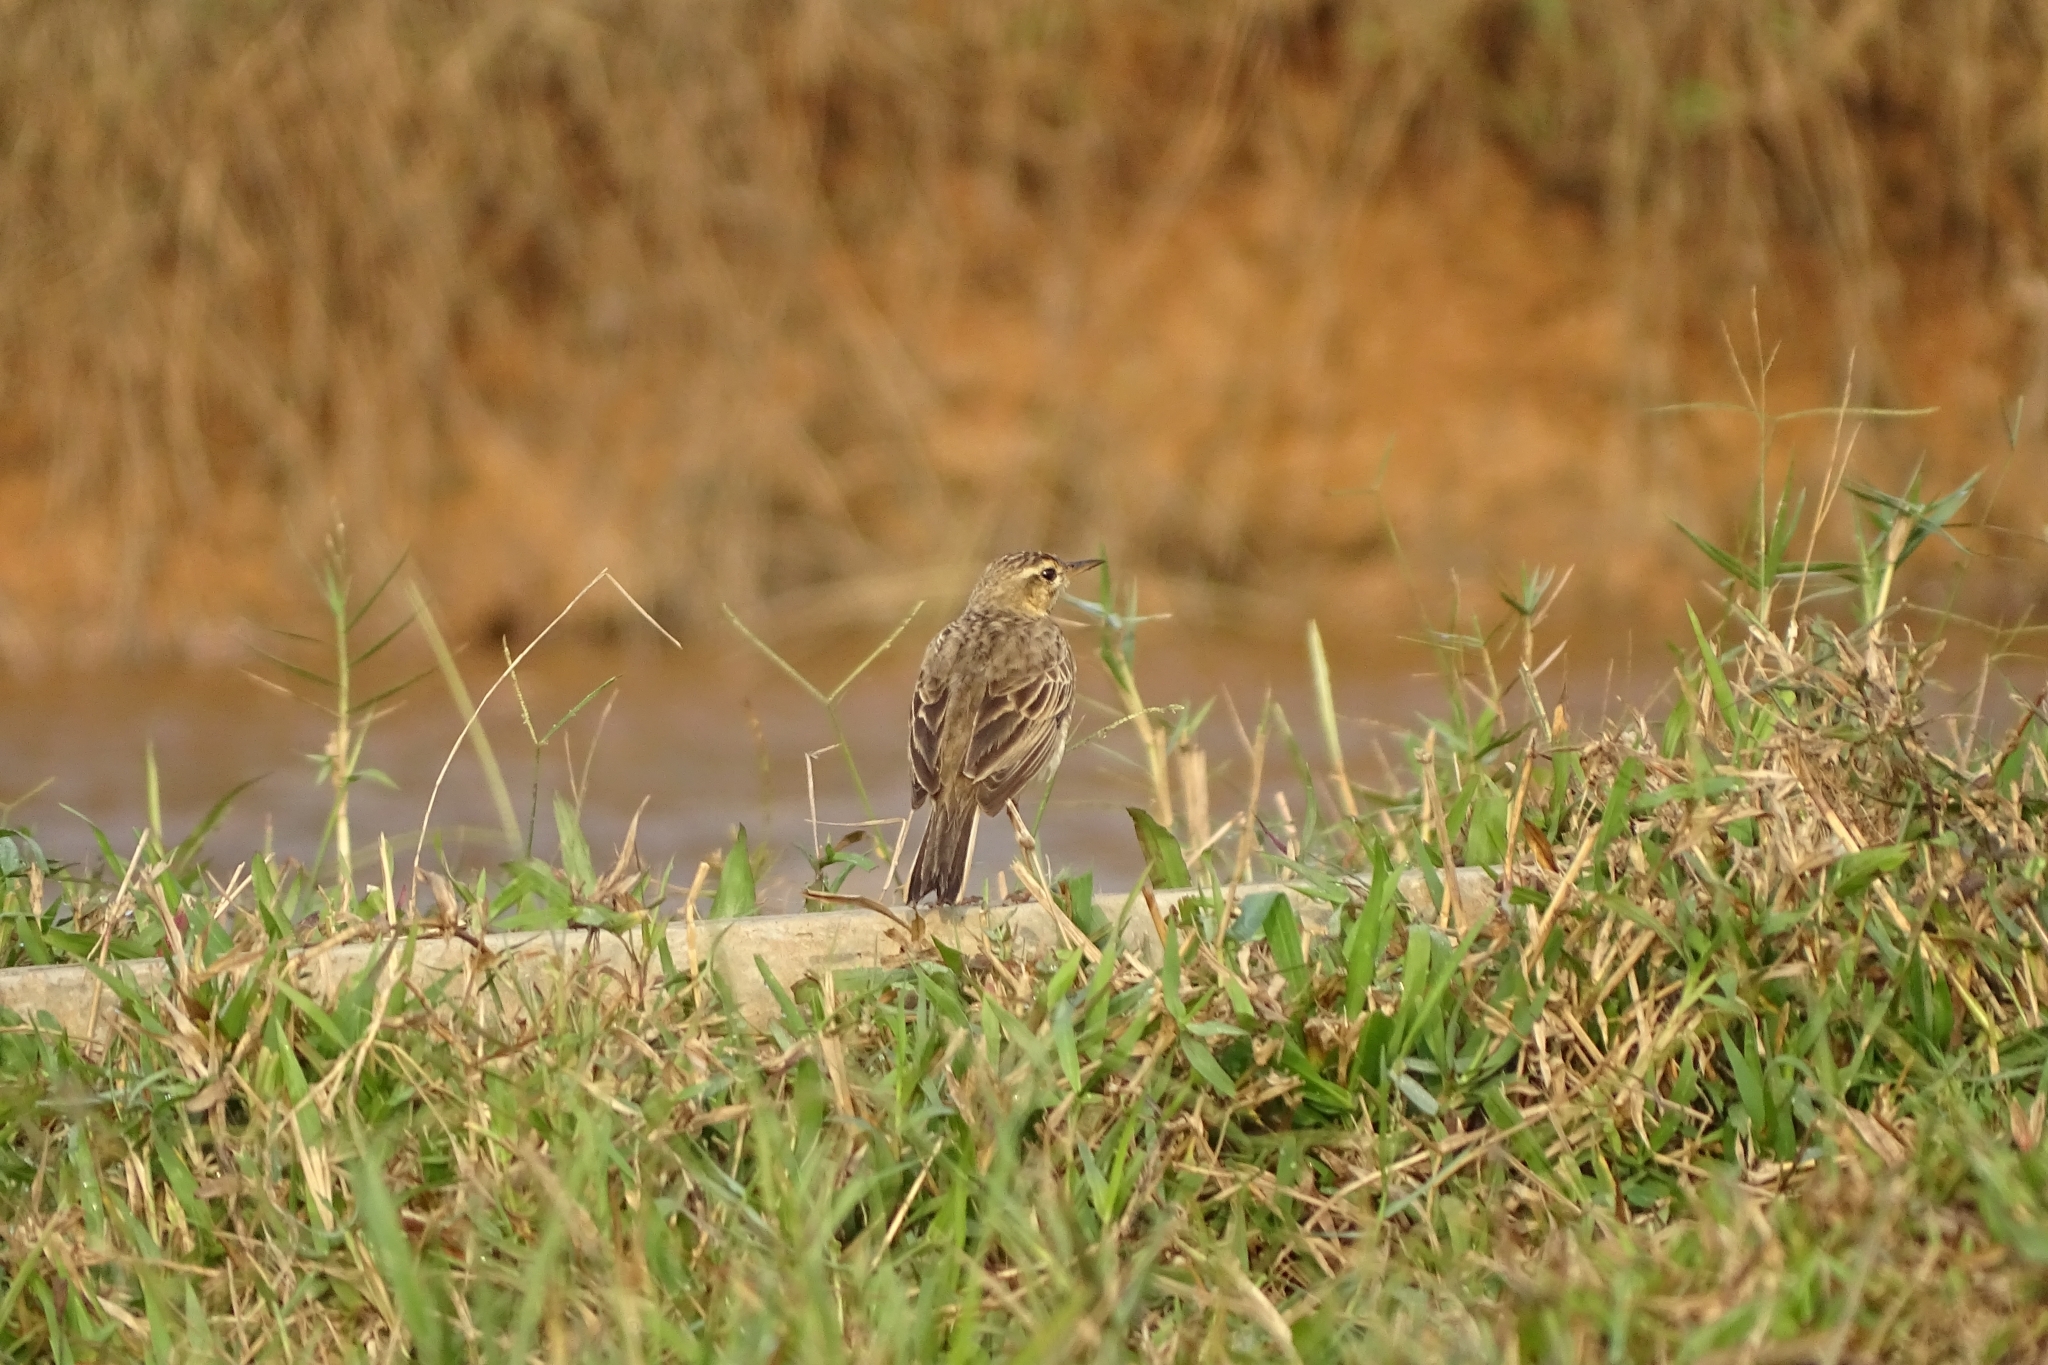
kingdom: Animalia
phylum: Chordata
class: Aves
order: Passeriformes
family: Motacillidae
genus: Anthus
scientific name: Anthus rufulus
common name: Paddyfield pipit
